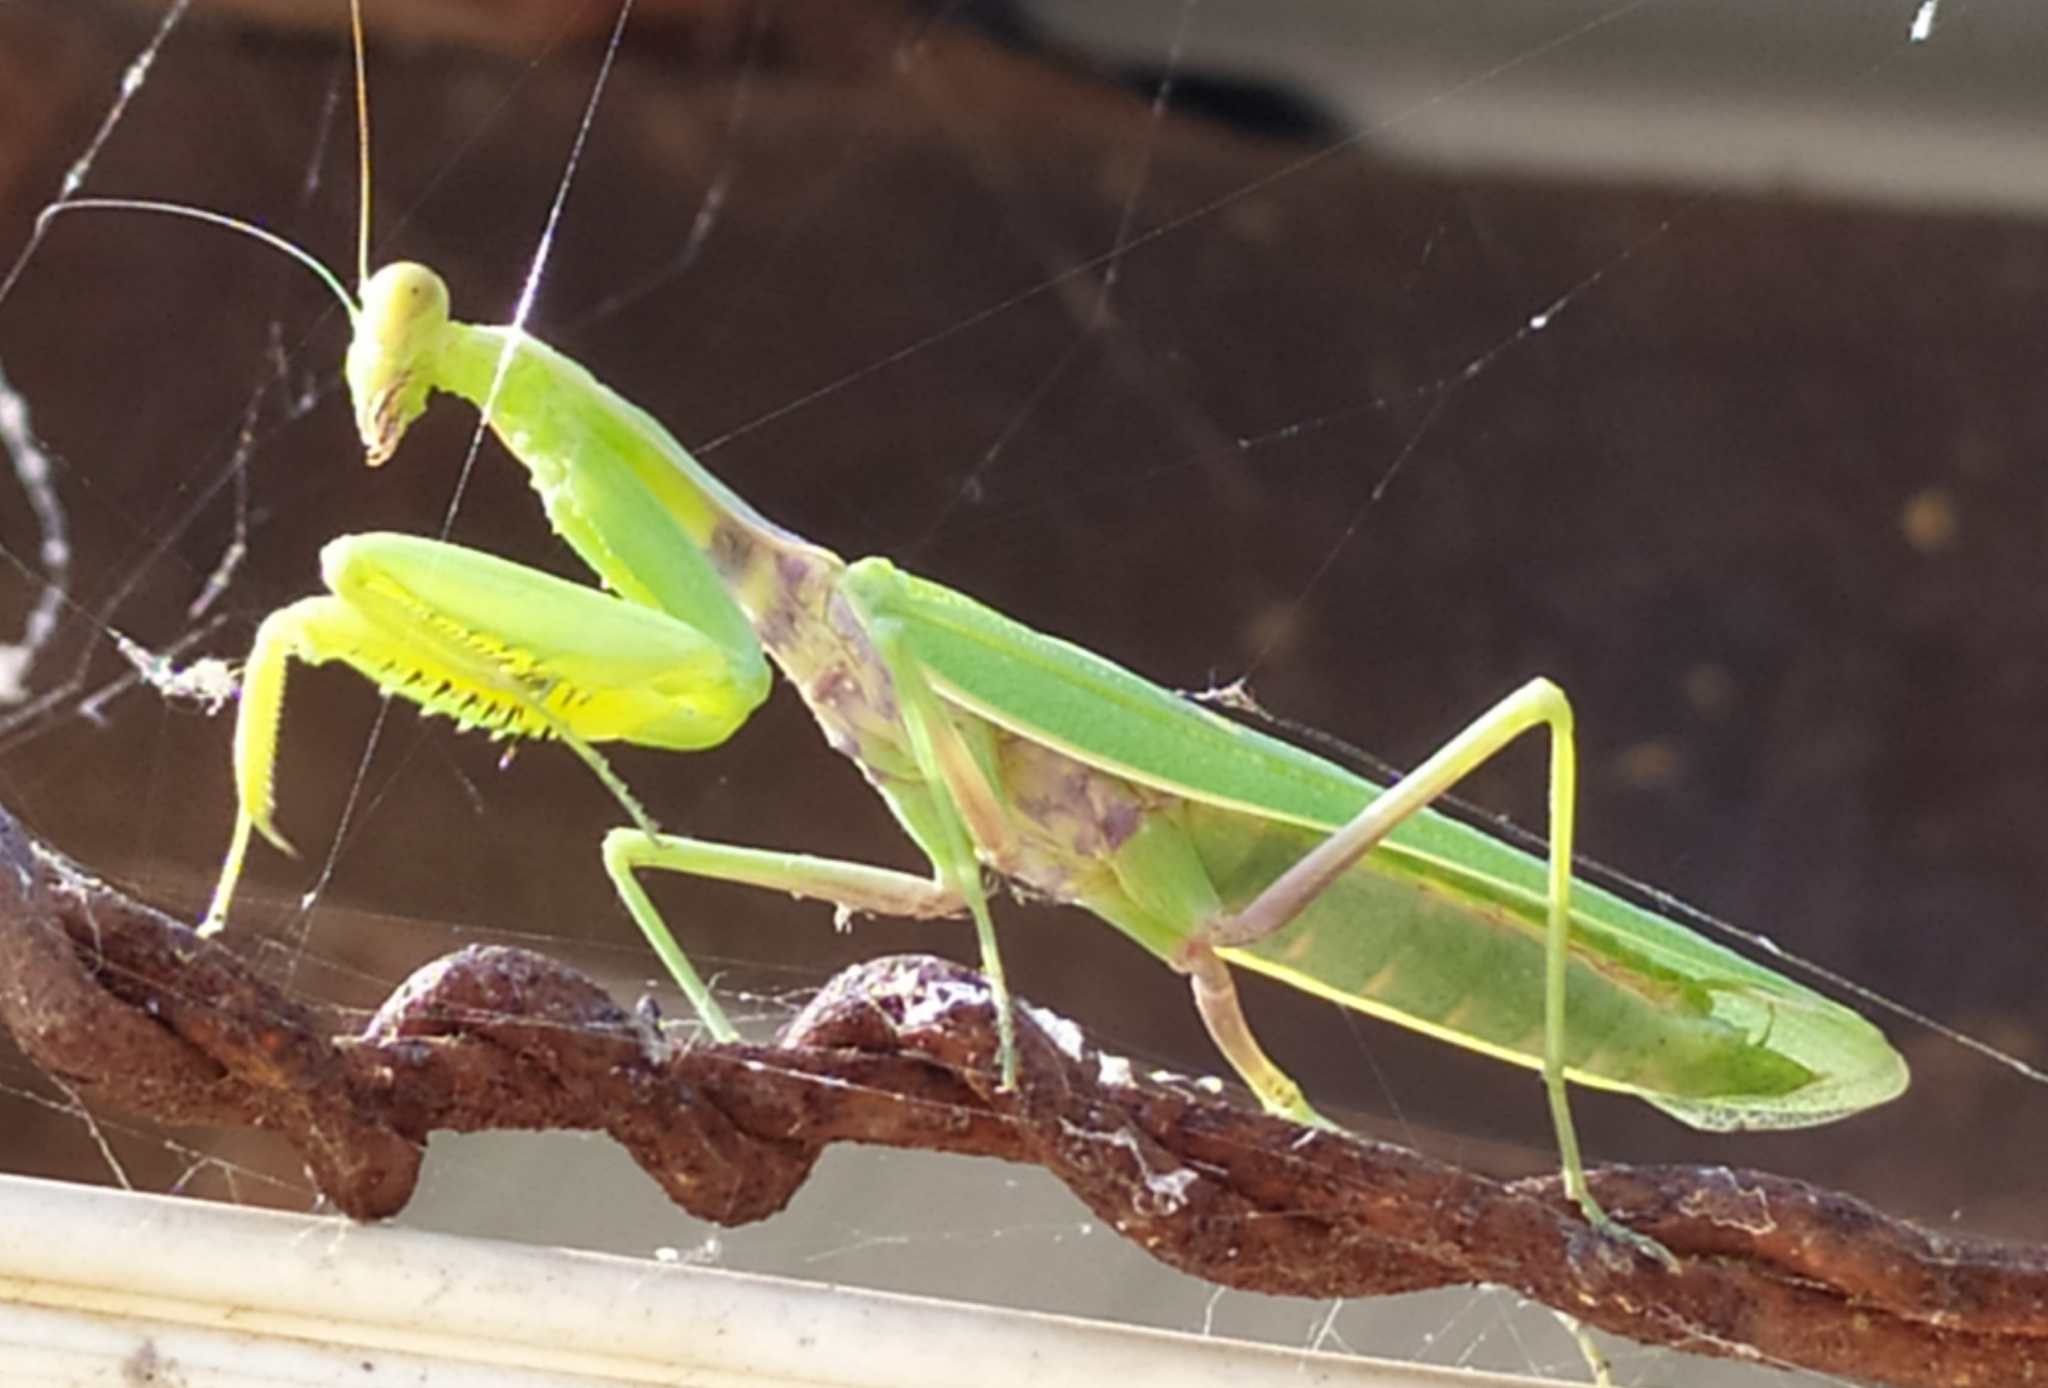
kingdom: Animalia
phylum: Arthropoda
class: Insecta
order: Mantodea
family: Mantidae
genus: Hierodula
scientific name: Hierodula transcaucasica
